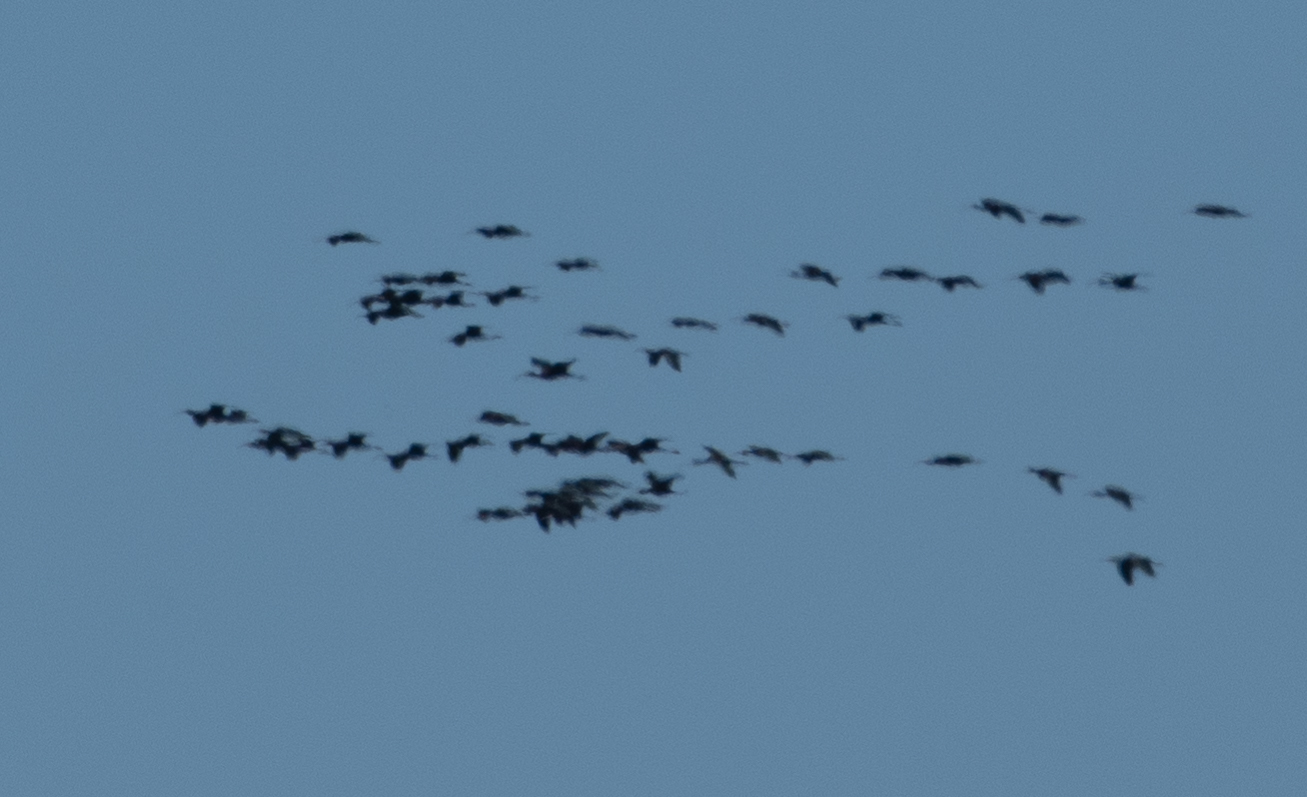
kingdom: Animalia
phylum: Chordata
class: Aves
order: Pelecaniformes
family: Threskiornithidae
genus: Plegadis
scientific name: Plegadis chihi
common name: White-faced ibis
